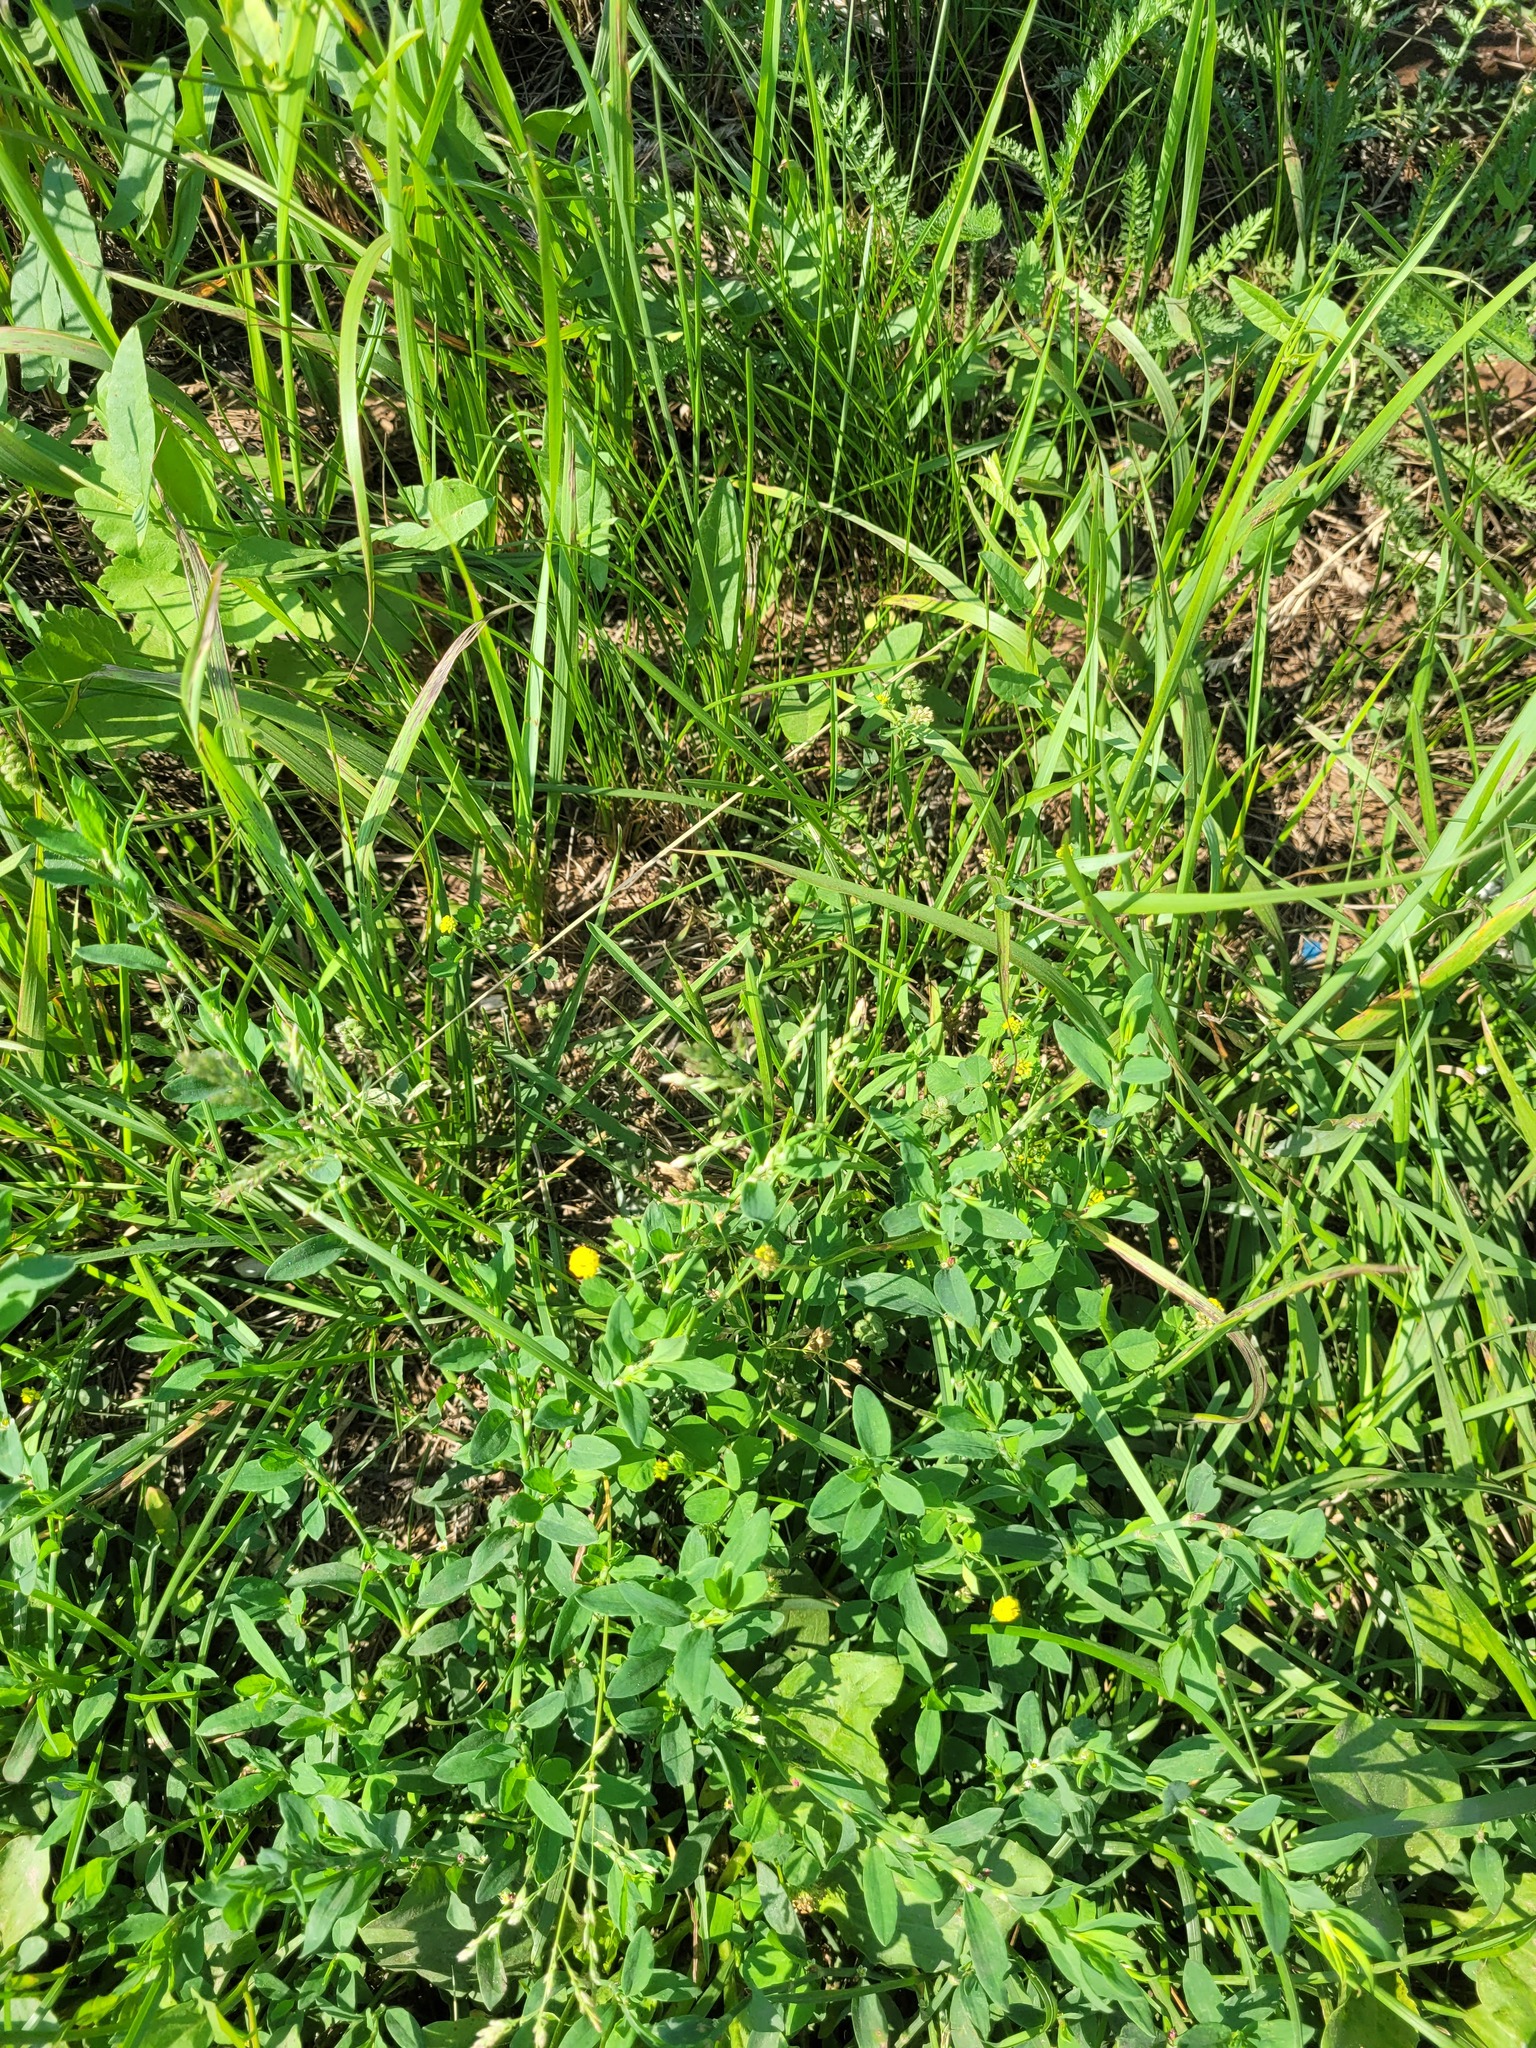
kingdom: Plantae
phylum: Tracheophyta
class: Liliopsida
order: Poales
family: Poaceae
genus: Poa
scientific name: Poa annua
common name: Annual bluegrass
